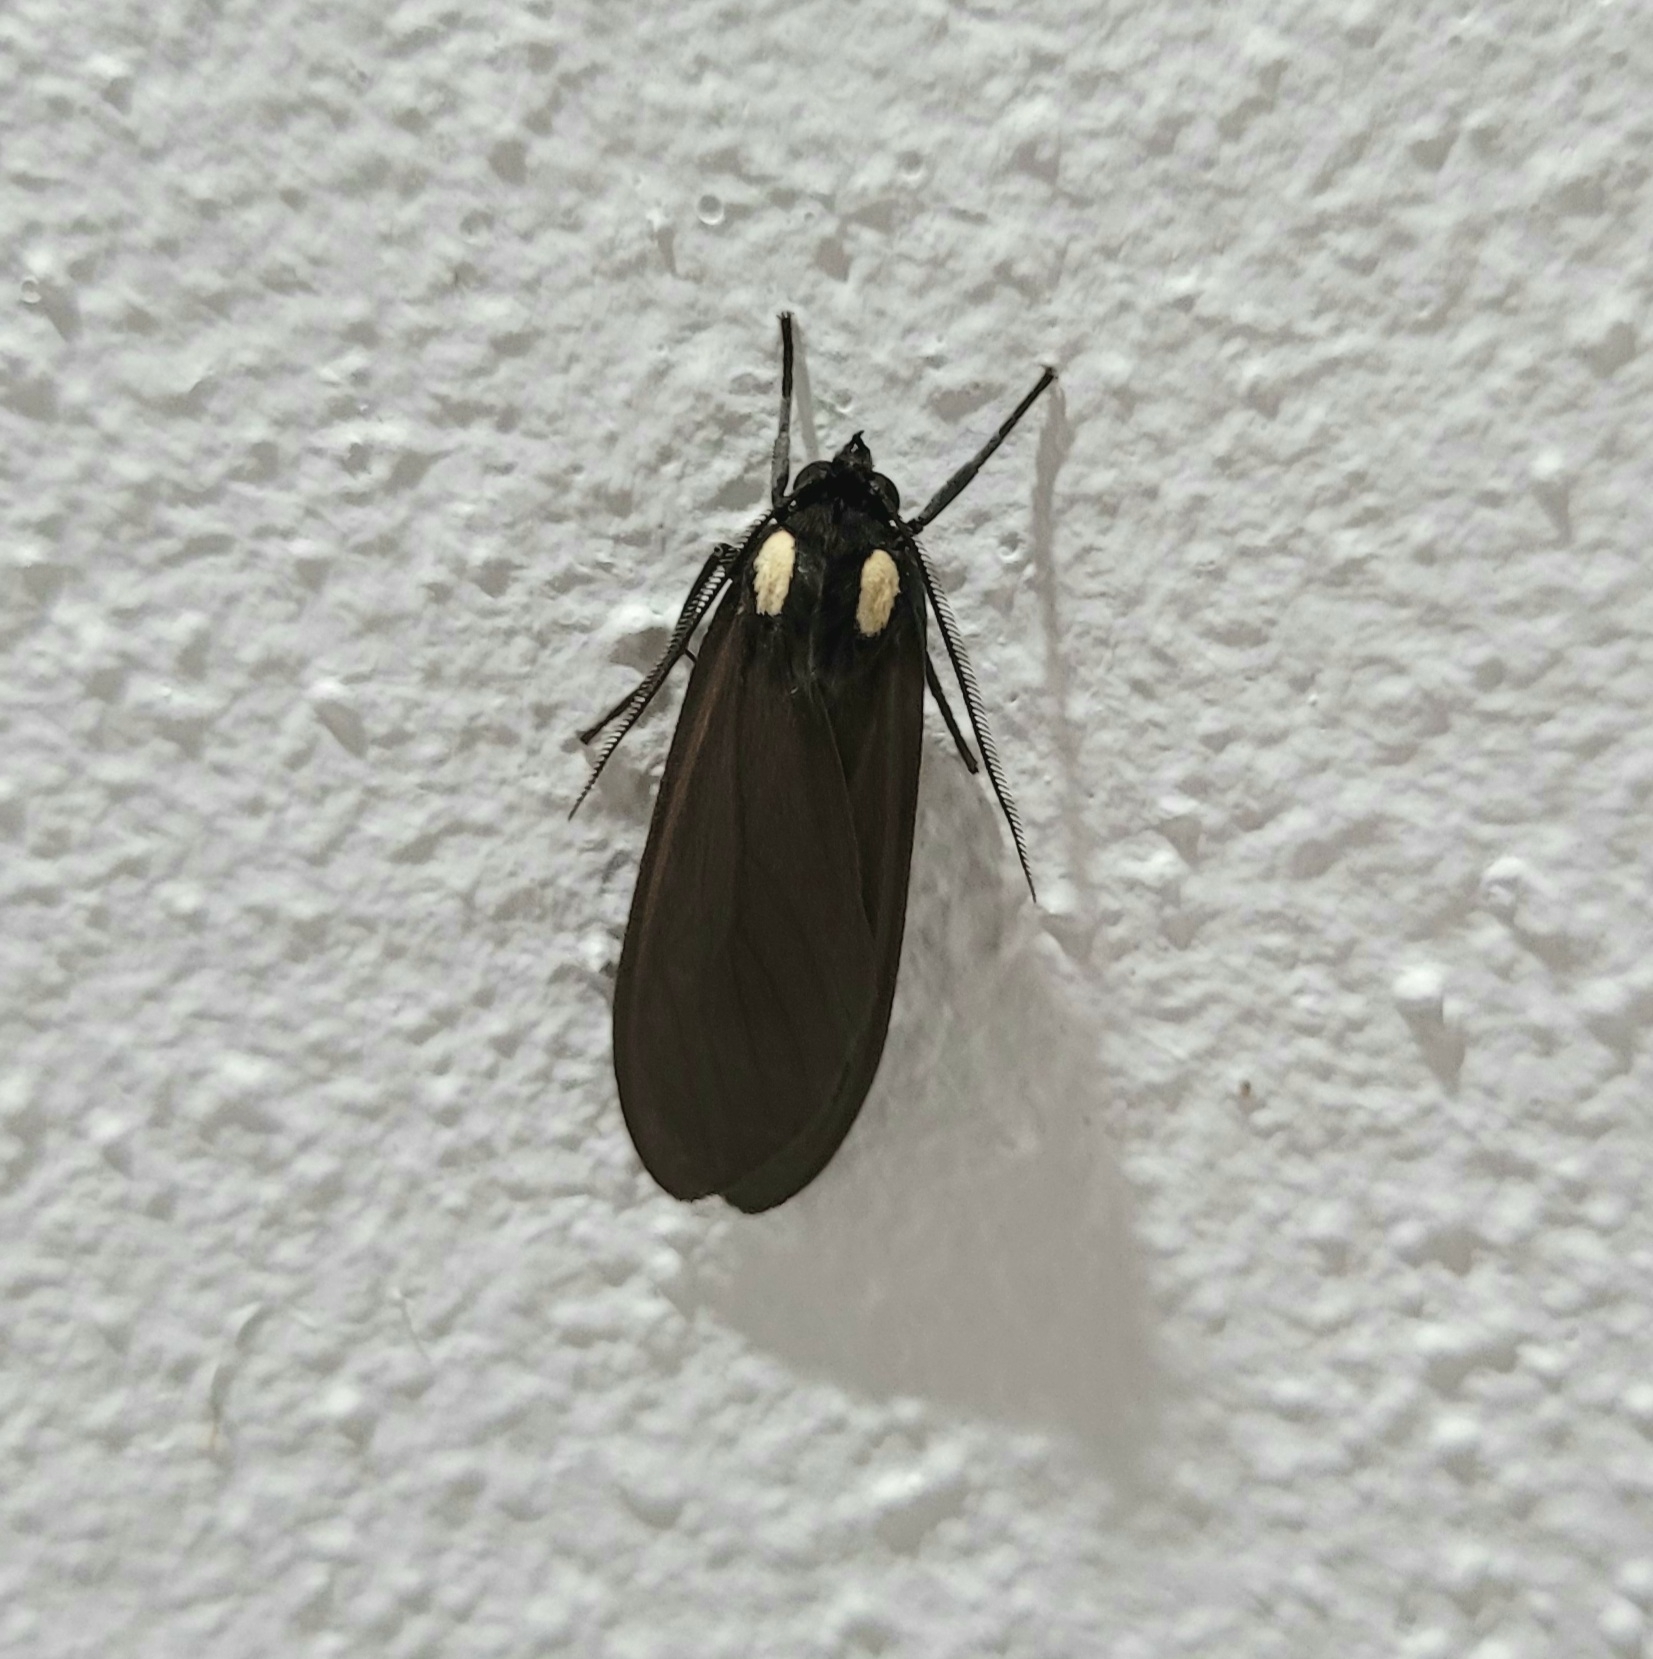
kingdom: Animalia
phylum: Arthropoda
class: Insecta
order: Lepidoptera
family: Erebidae
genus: Opharus
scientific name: Opharus bimaculata
